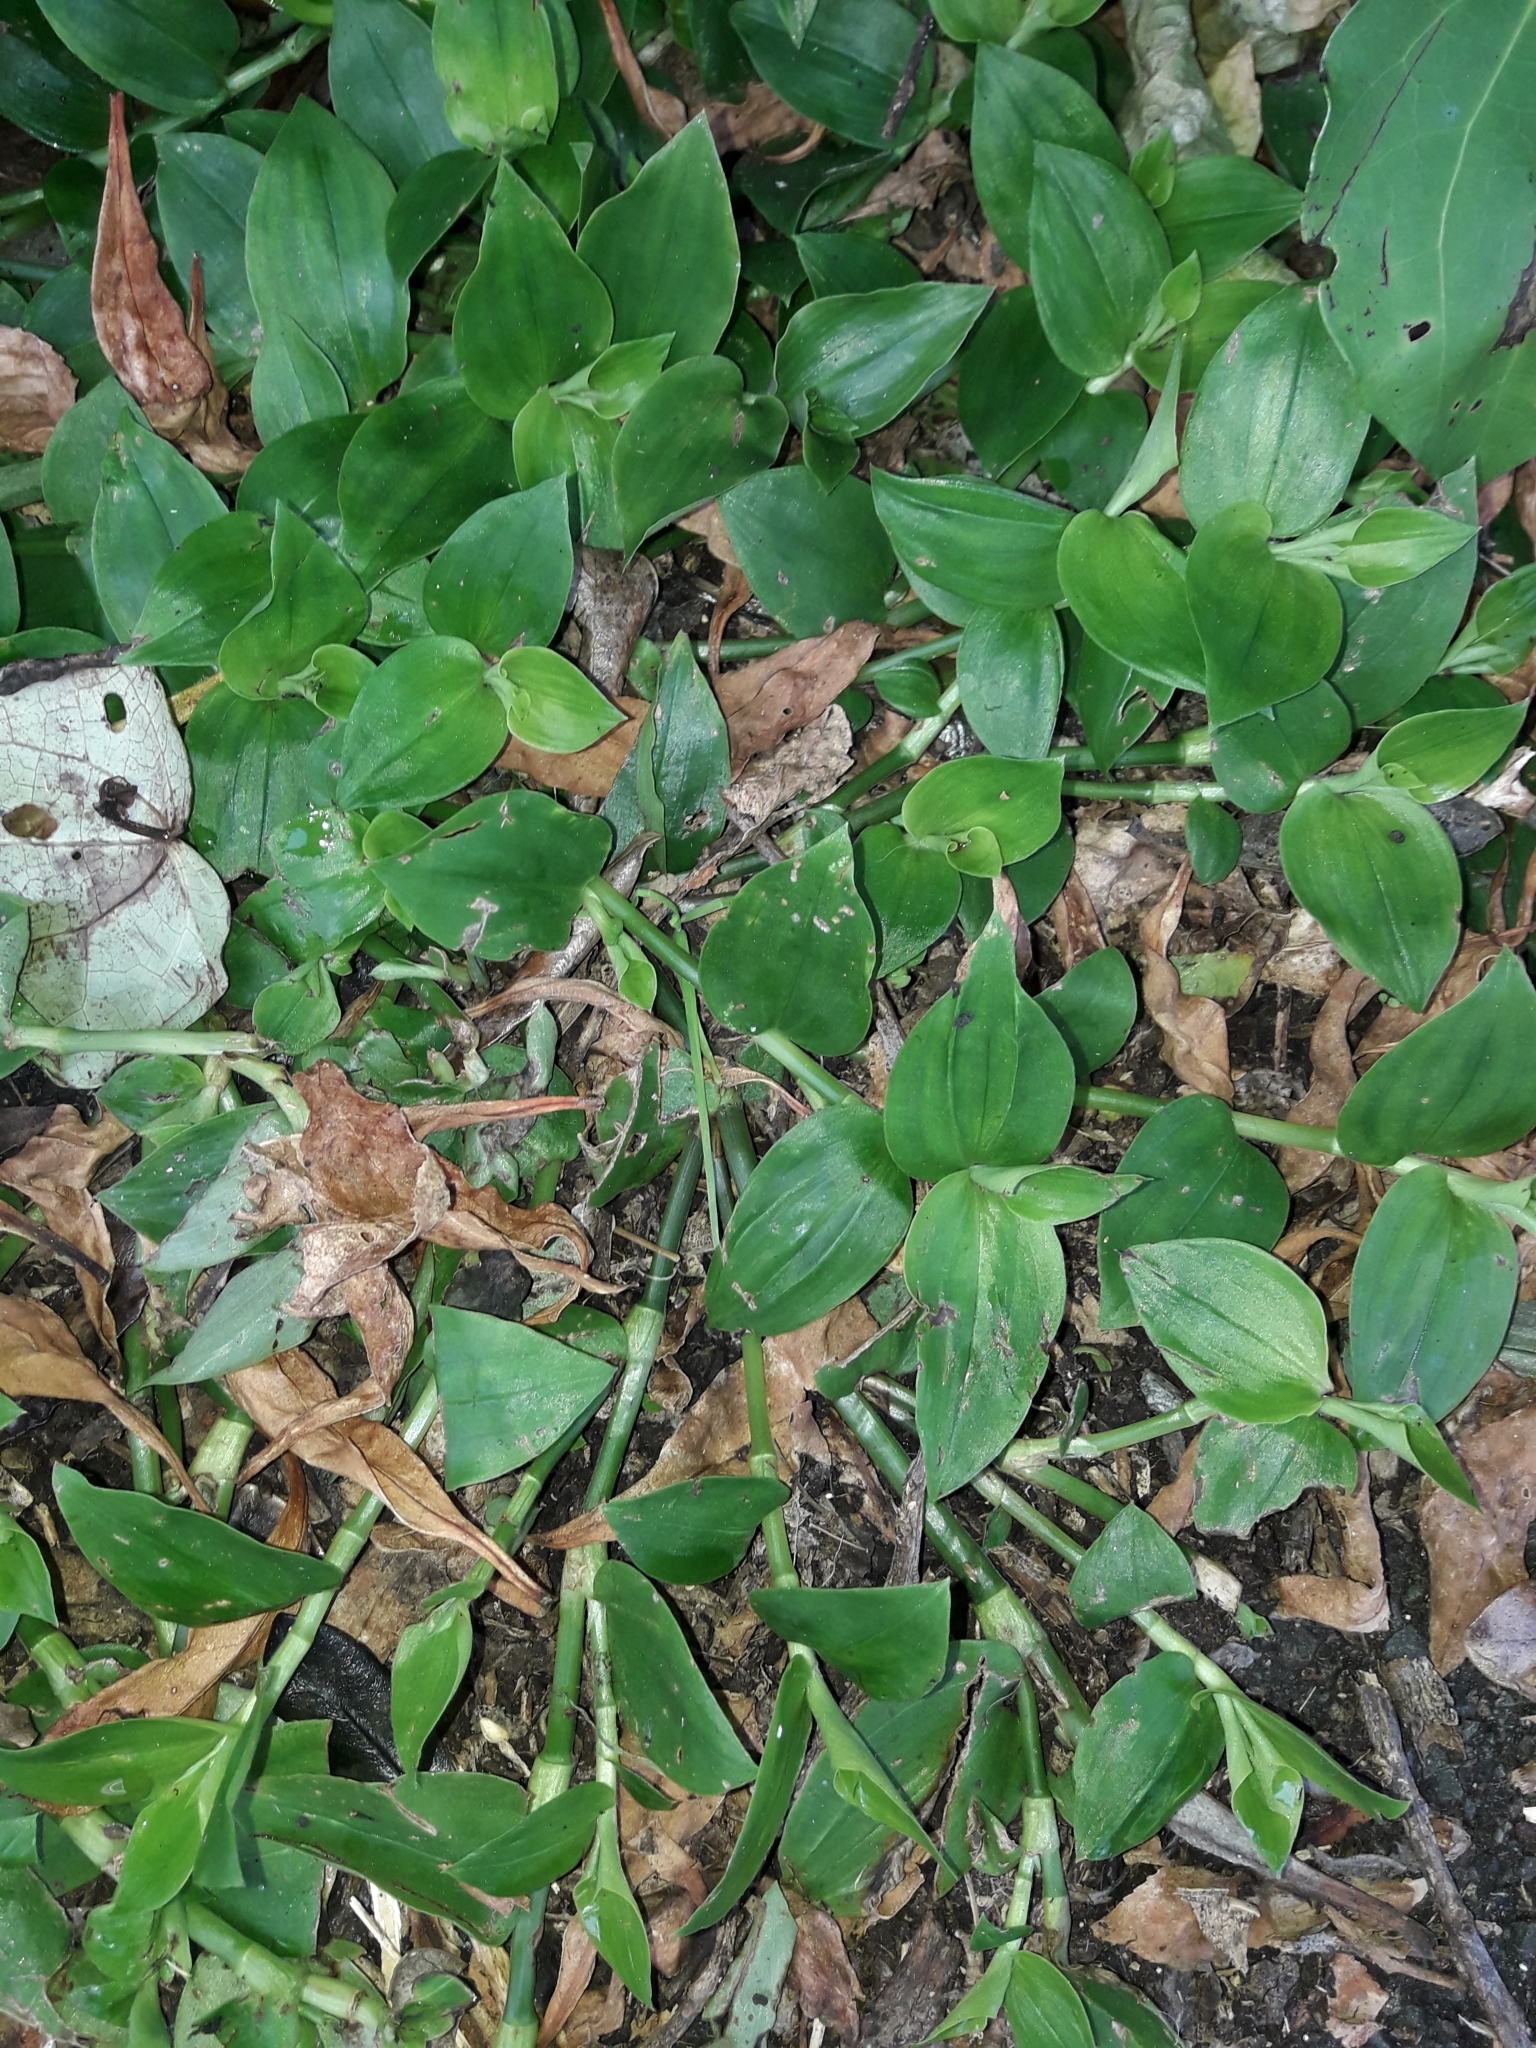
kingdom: Plantae
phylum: Tracheophyta
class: Liliopsida
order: Commelinales
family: Commelinaceae
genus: Tradescantia
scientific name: Tradescantia fluminensis
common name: Wandering-jew
